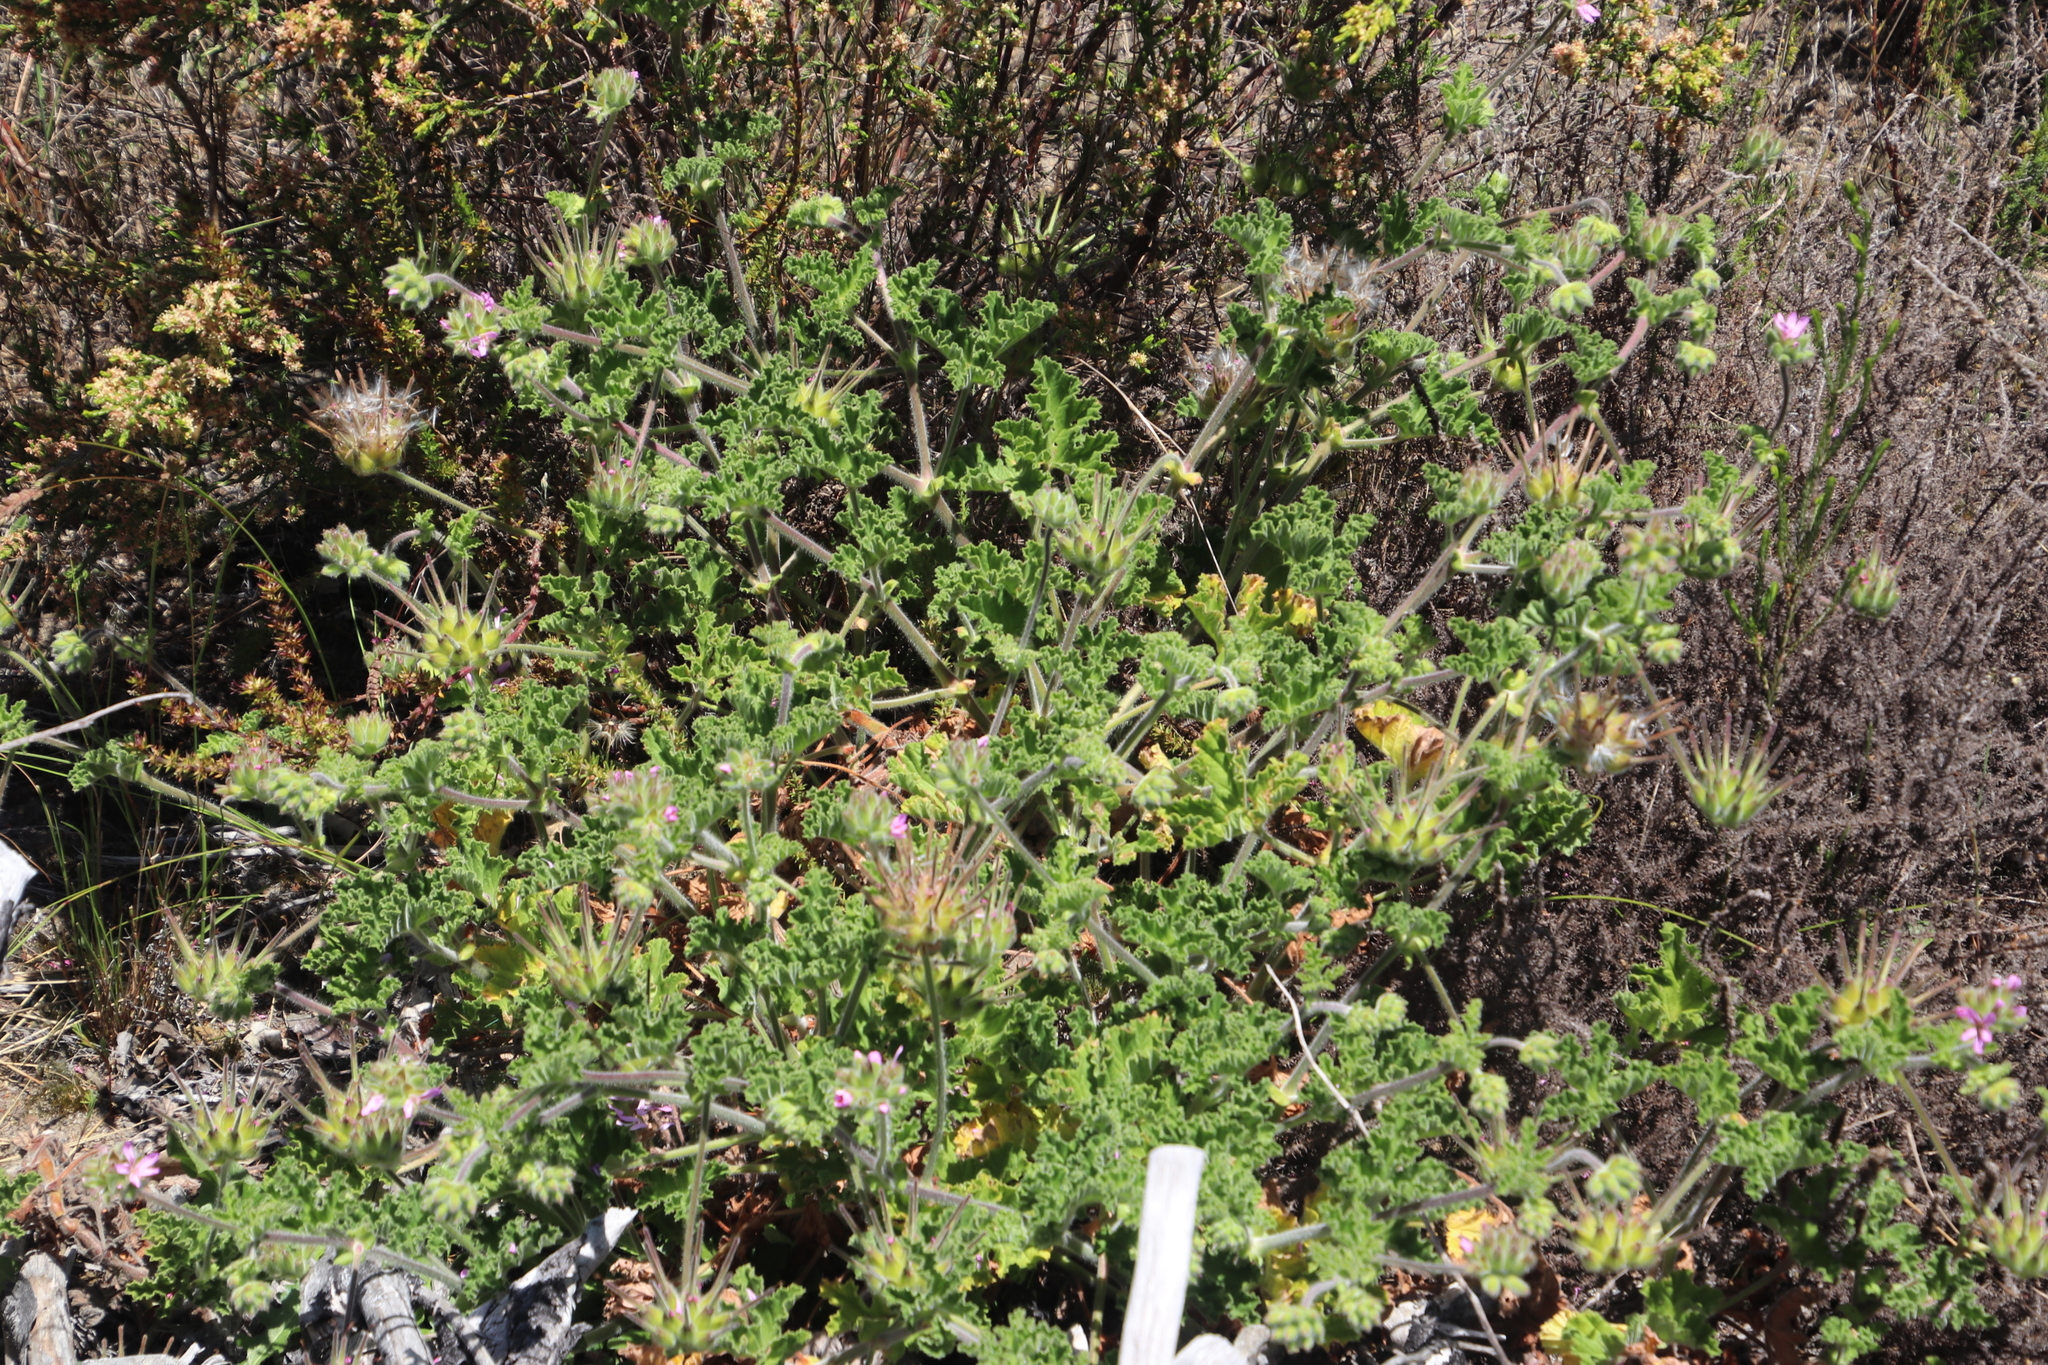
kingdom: Plantae
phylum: Tracheophyta
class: Magnoliopsida
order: Geraniales
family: Geraniaceae
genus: Pelargonium
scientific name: Pelargonium capitatum
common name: Rose scented geranium
